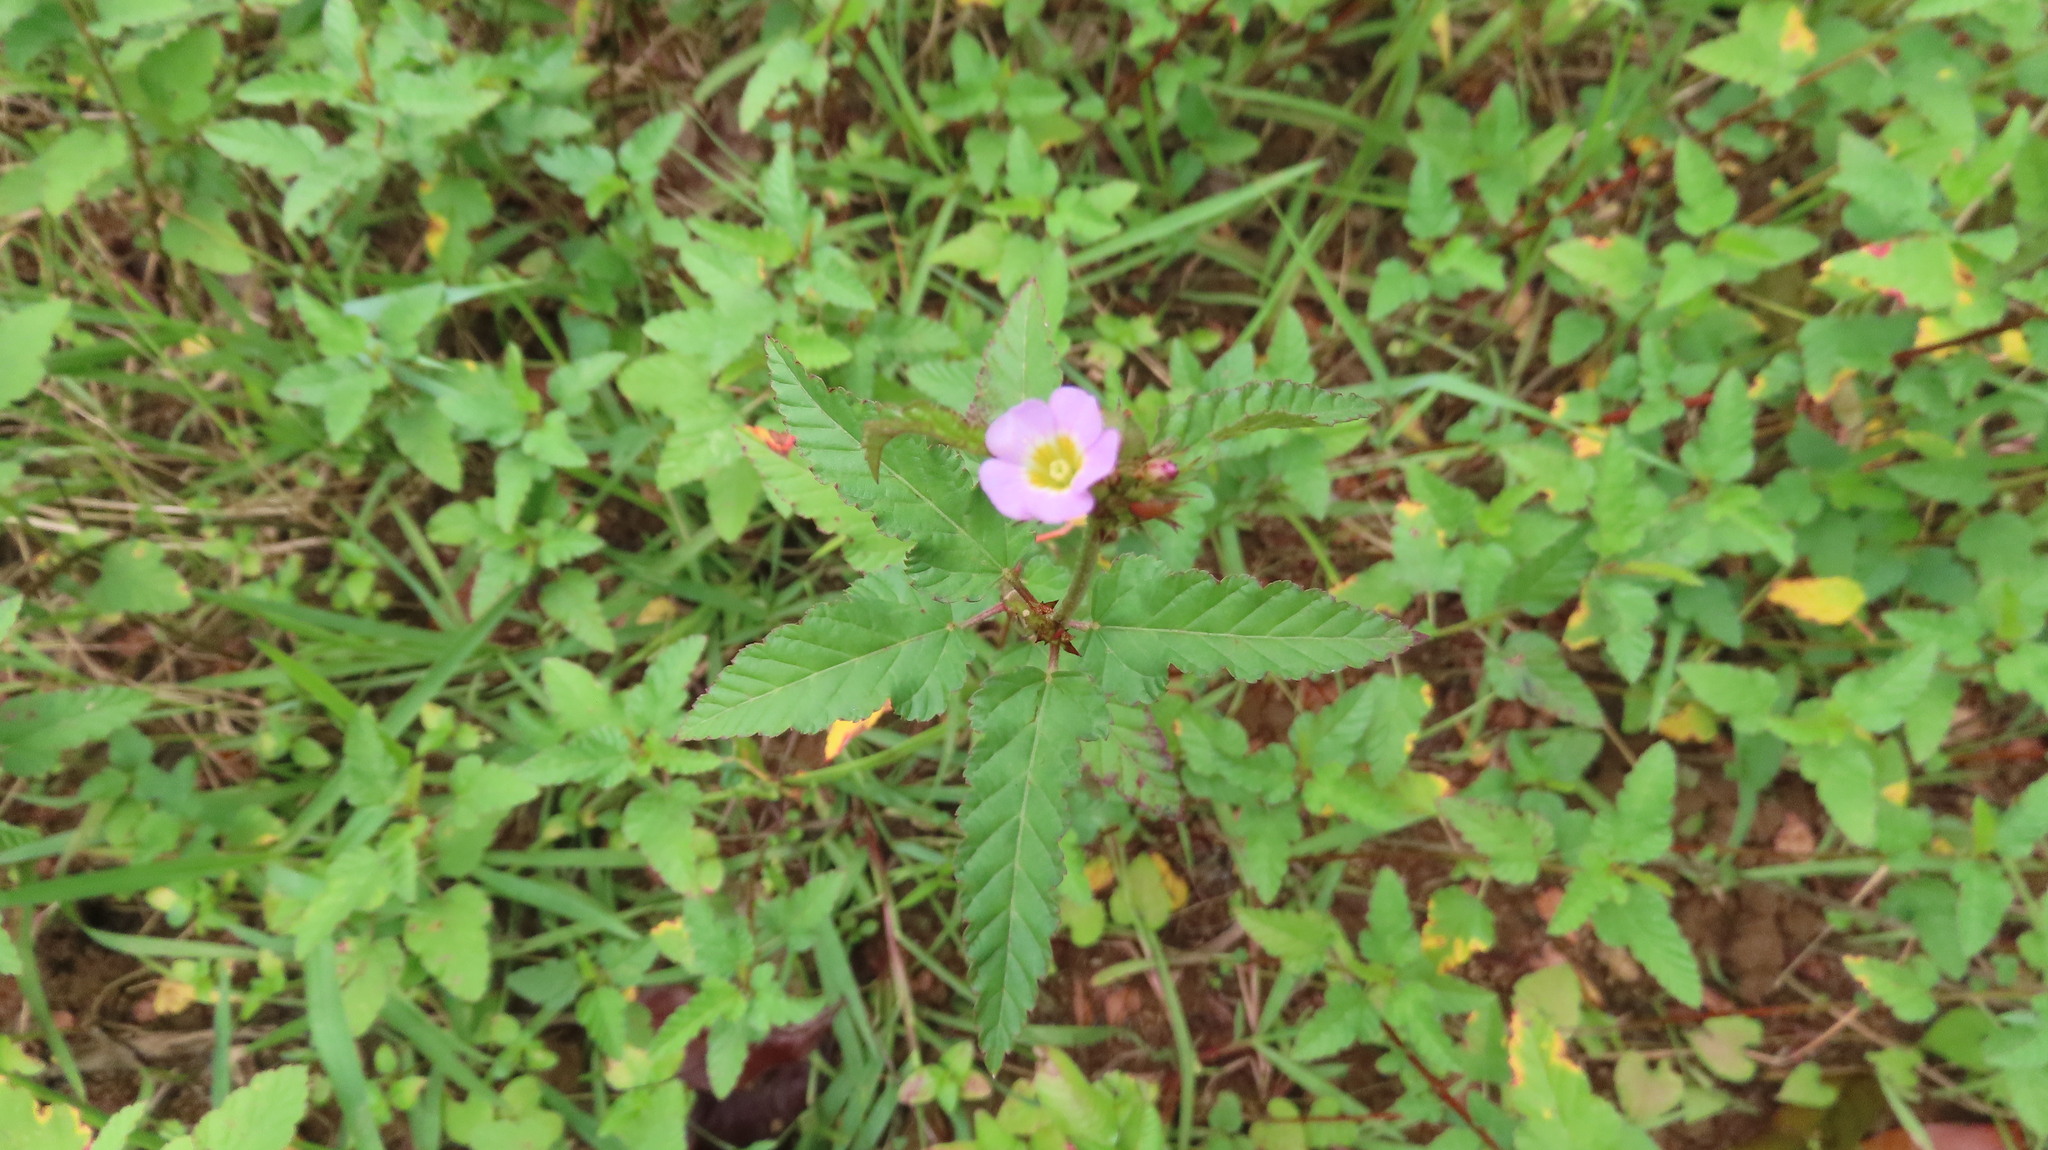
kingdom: Plantae
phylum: Tracheophyta
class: Magnoliopsida
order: Malvales
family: Malvaceae
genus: Melochia
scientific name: Melochia corchorifolia
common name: Chocolateweed
